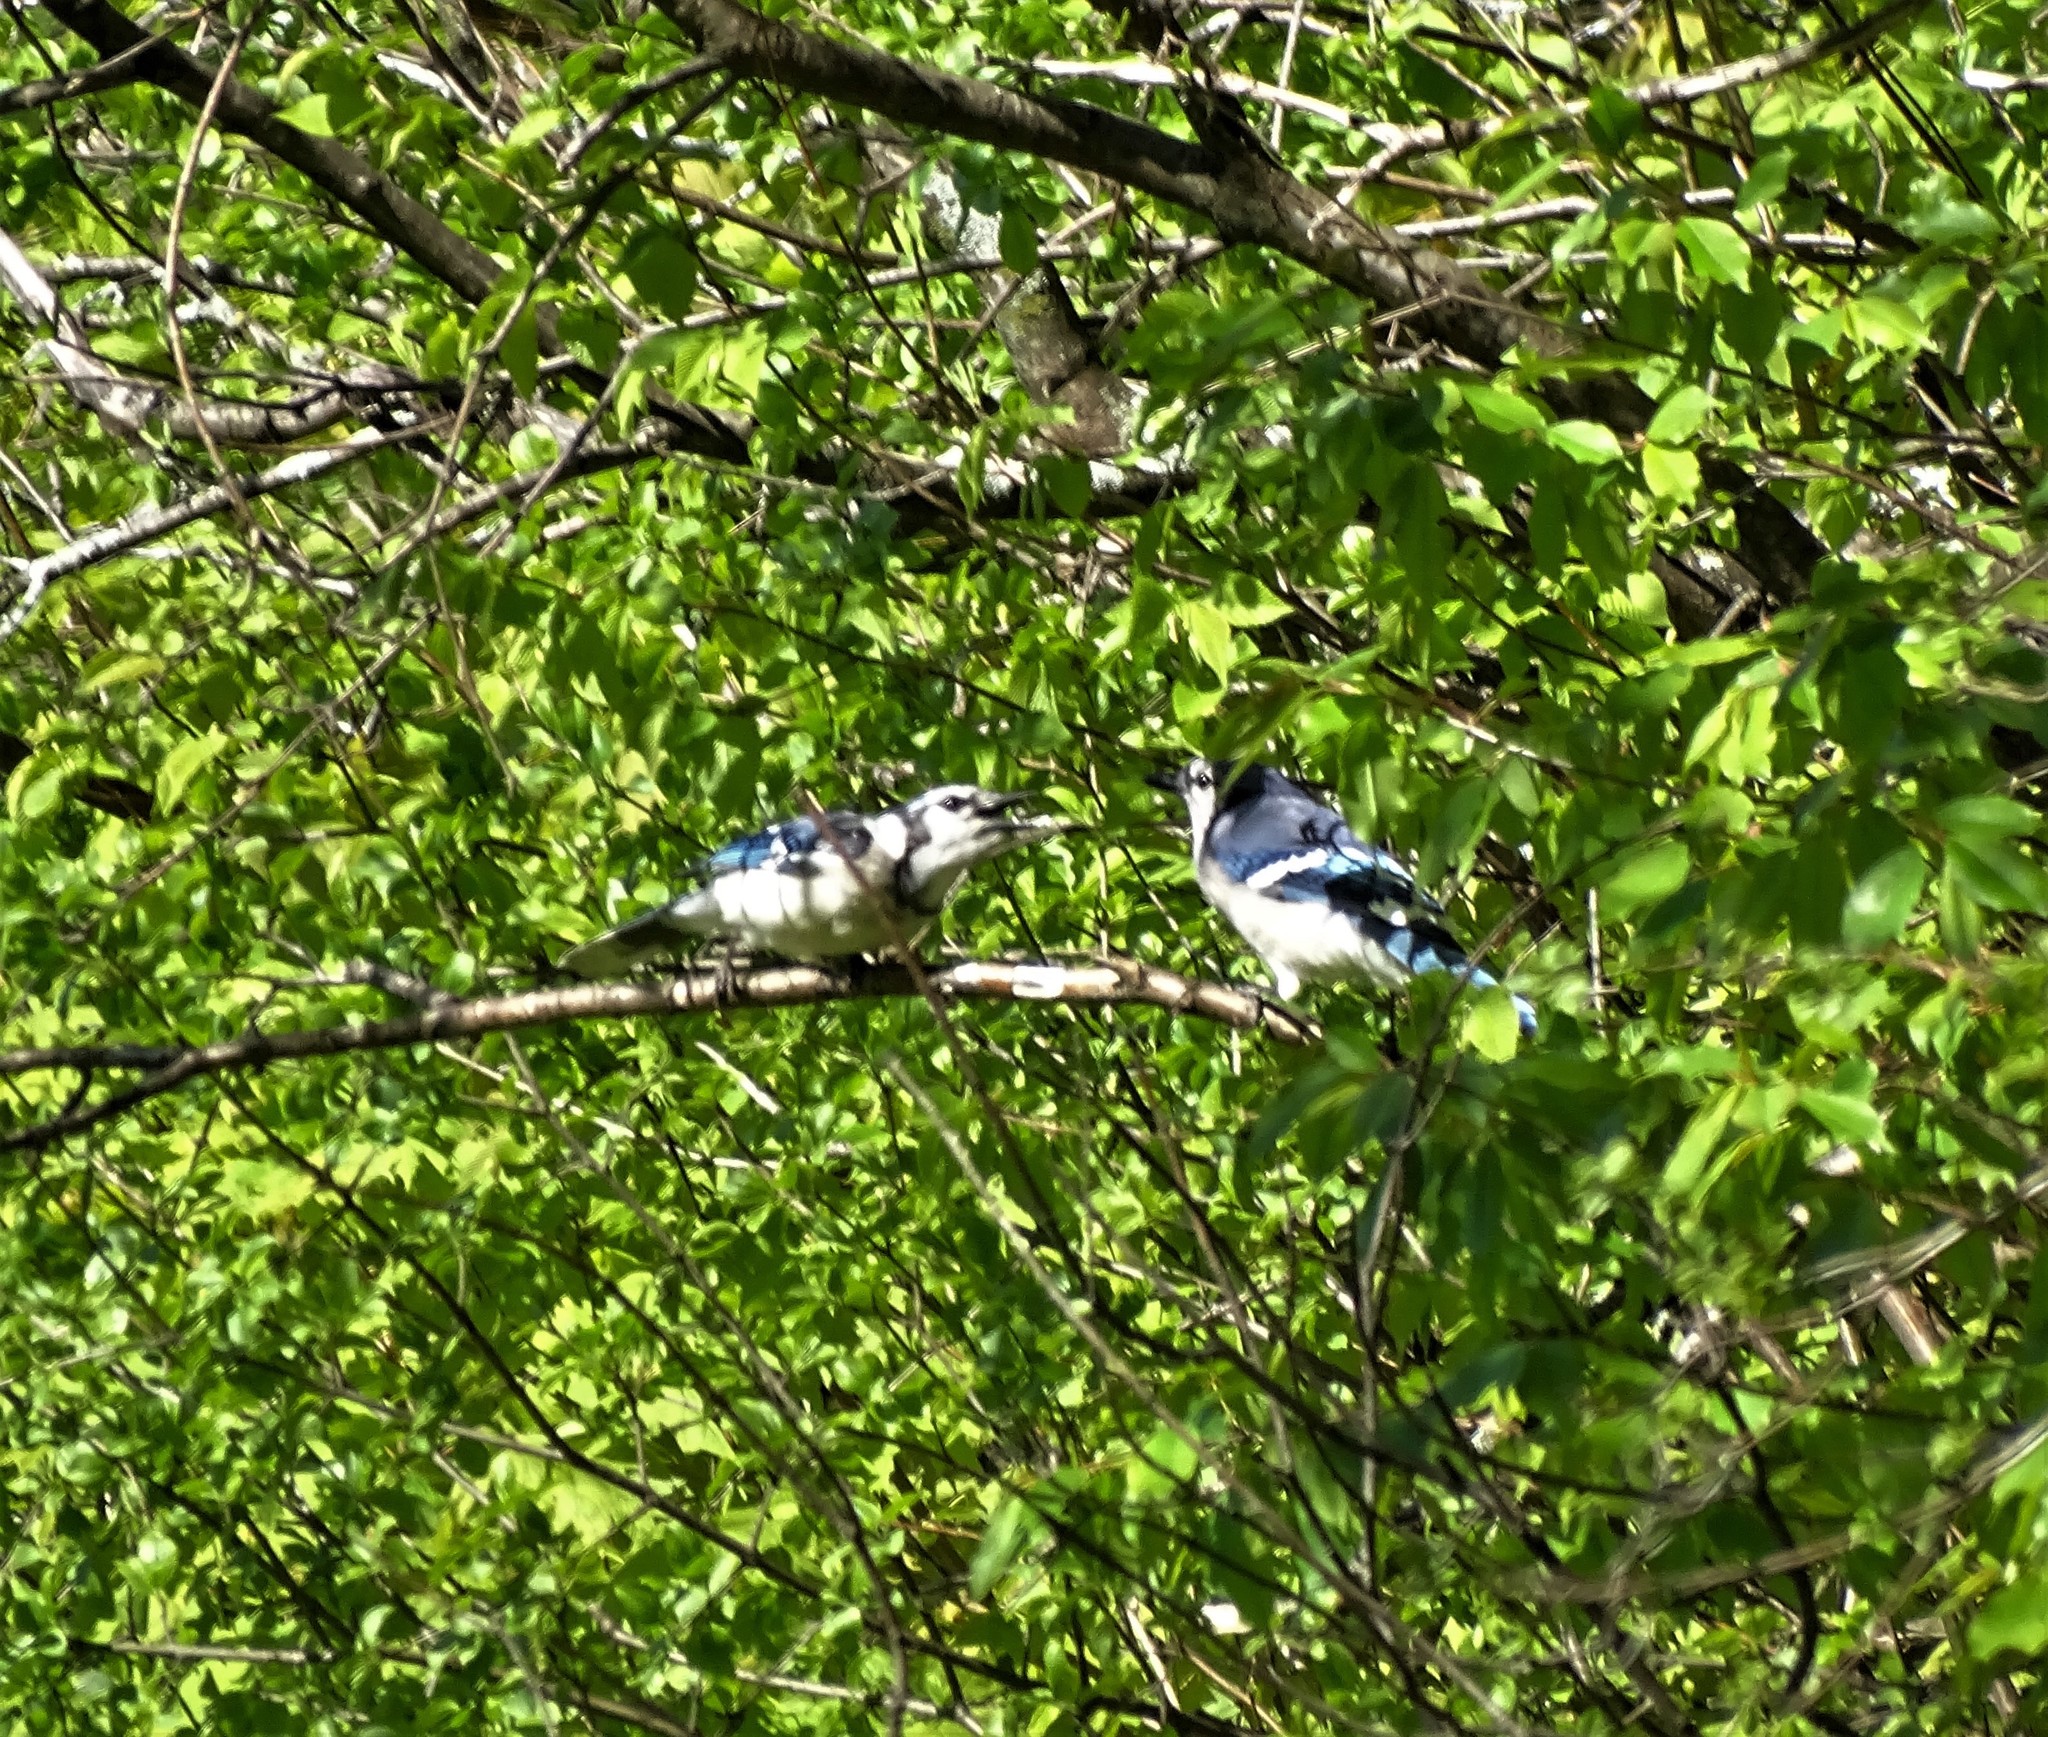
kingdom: Animalia
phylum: Chordata
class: Aves
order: Passeriformes
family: Corvidae
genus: Cyanocitta
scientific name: Cyanocitta cristata
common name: Blue jay
